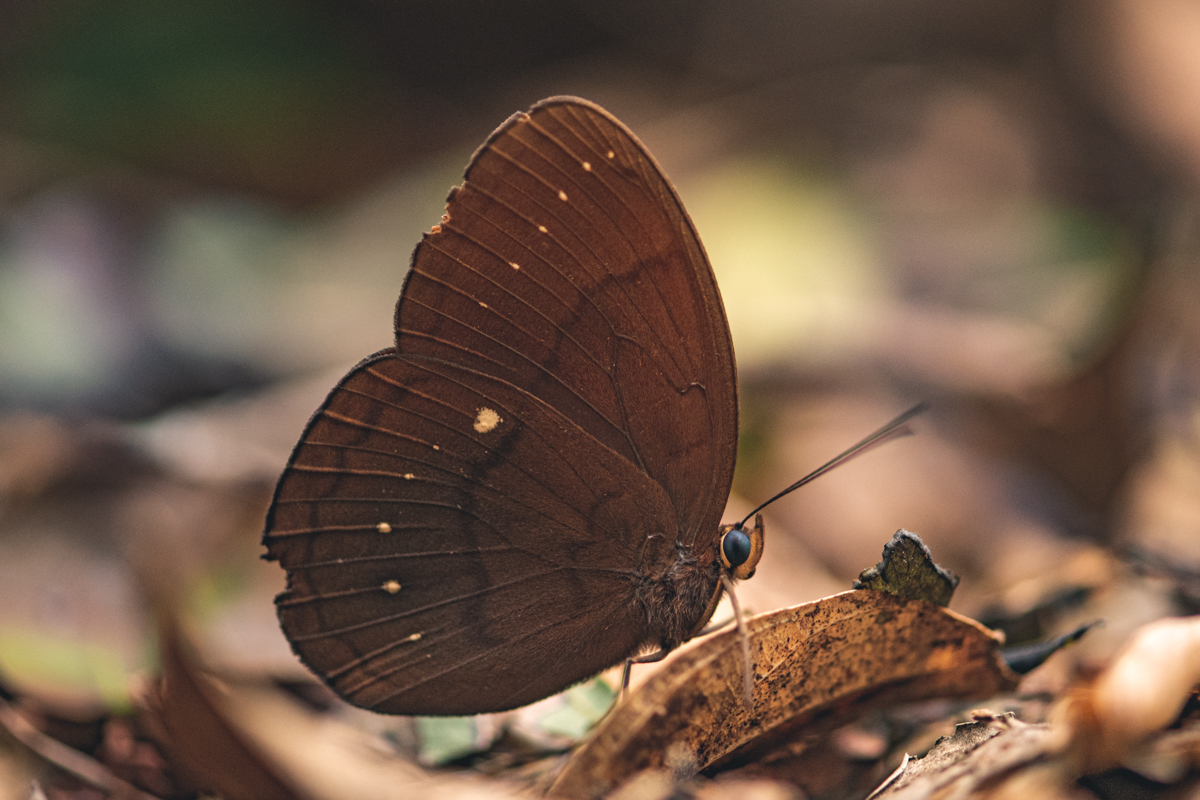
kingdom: Animalia
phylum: Arthropoda
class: Insecta
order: Lepidoptera
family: Nymphalidae
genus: Faunis
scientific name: Faunis eumeus
